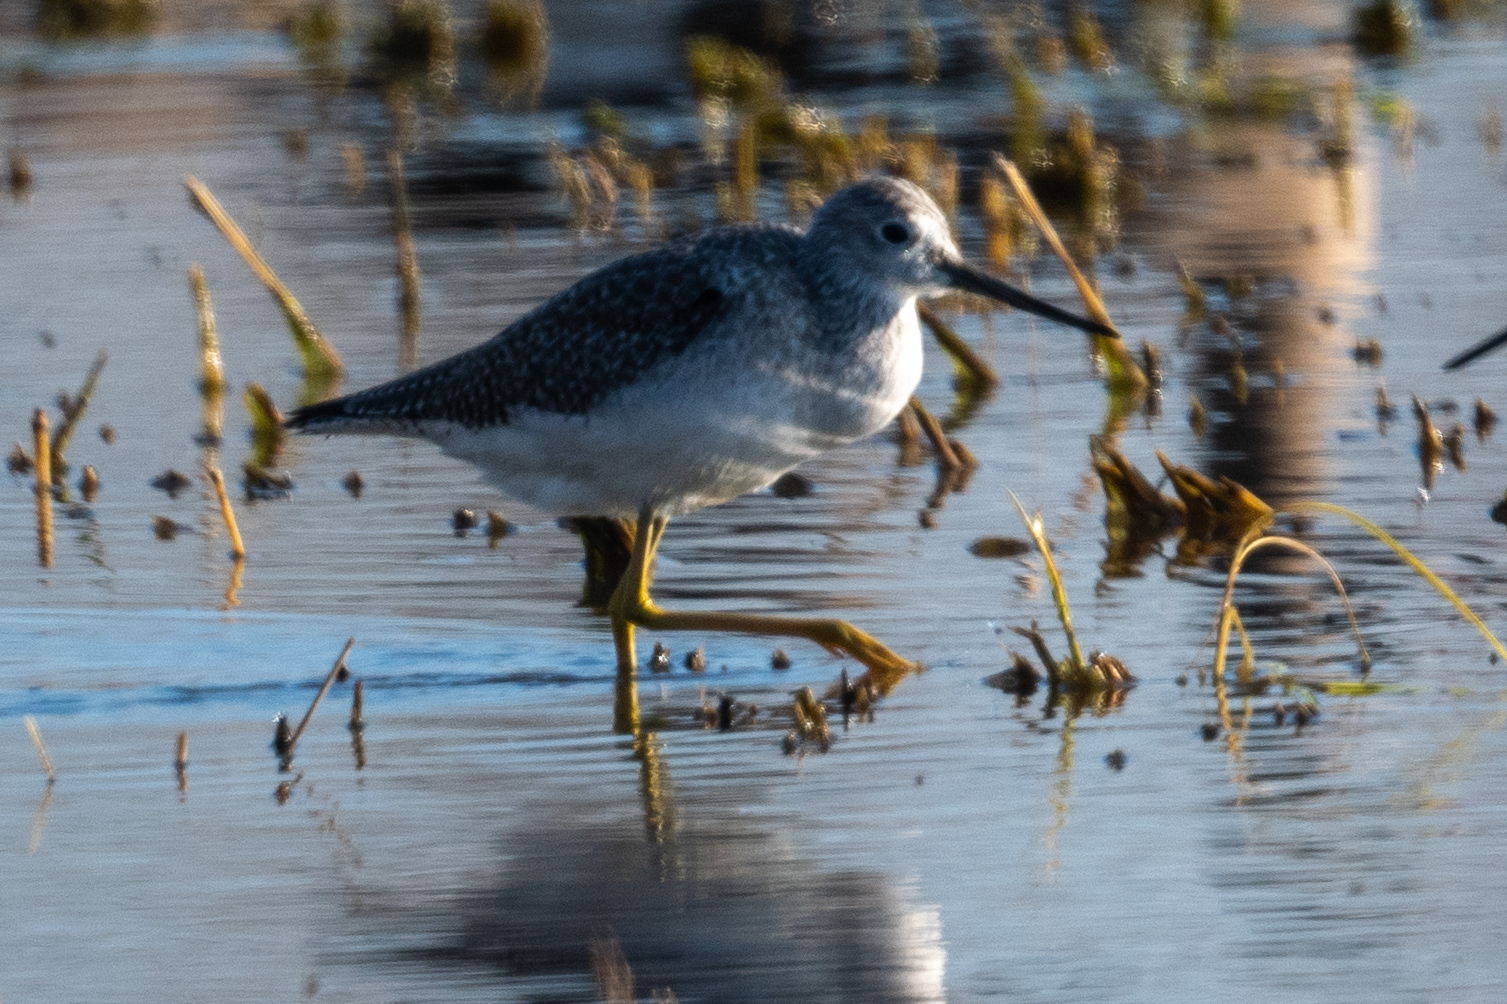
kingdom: Animalia
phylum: Chordata
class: Aves
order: Charadriiformes
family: Scolopacidae
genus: Tringa
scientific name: Tringa melanoleuca
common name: Greater yellowlegs
